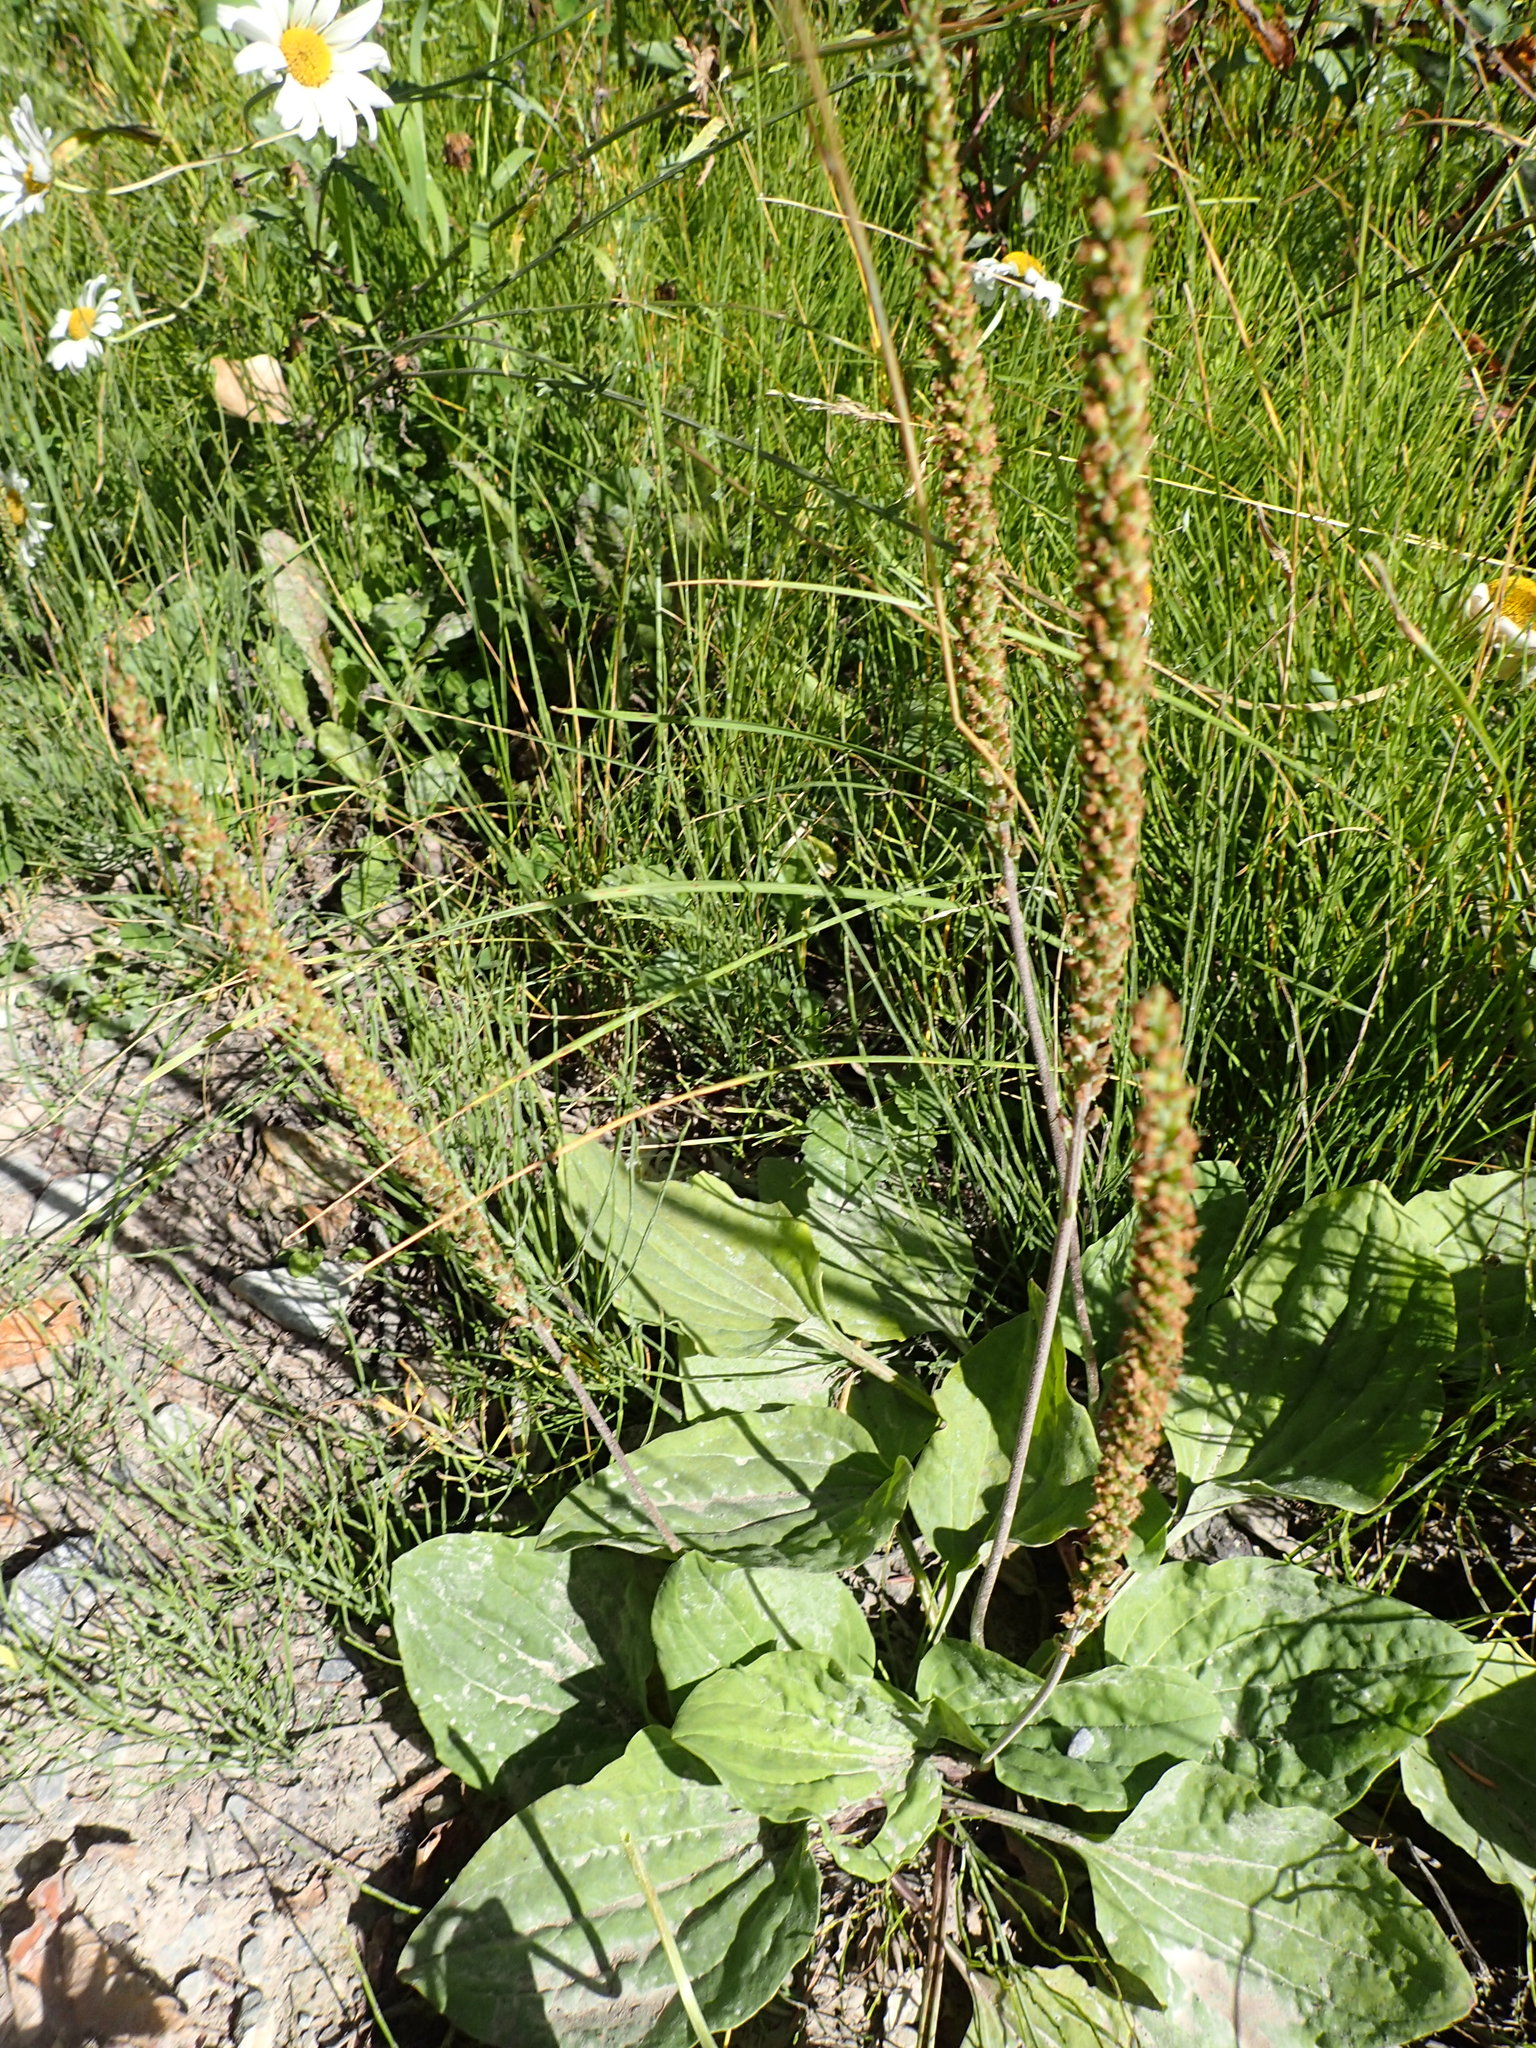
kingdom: Plantae
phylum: Tracheophyta
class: Magnoliopsida
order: Lamiales
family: Plantaginaceae
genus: Plantago
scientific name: Plantago major
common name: Common plantain
